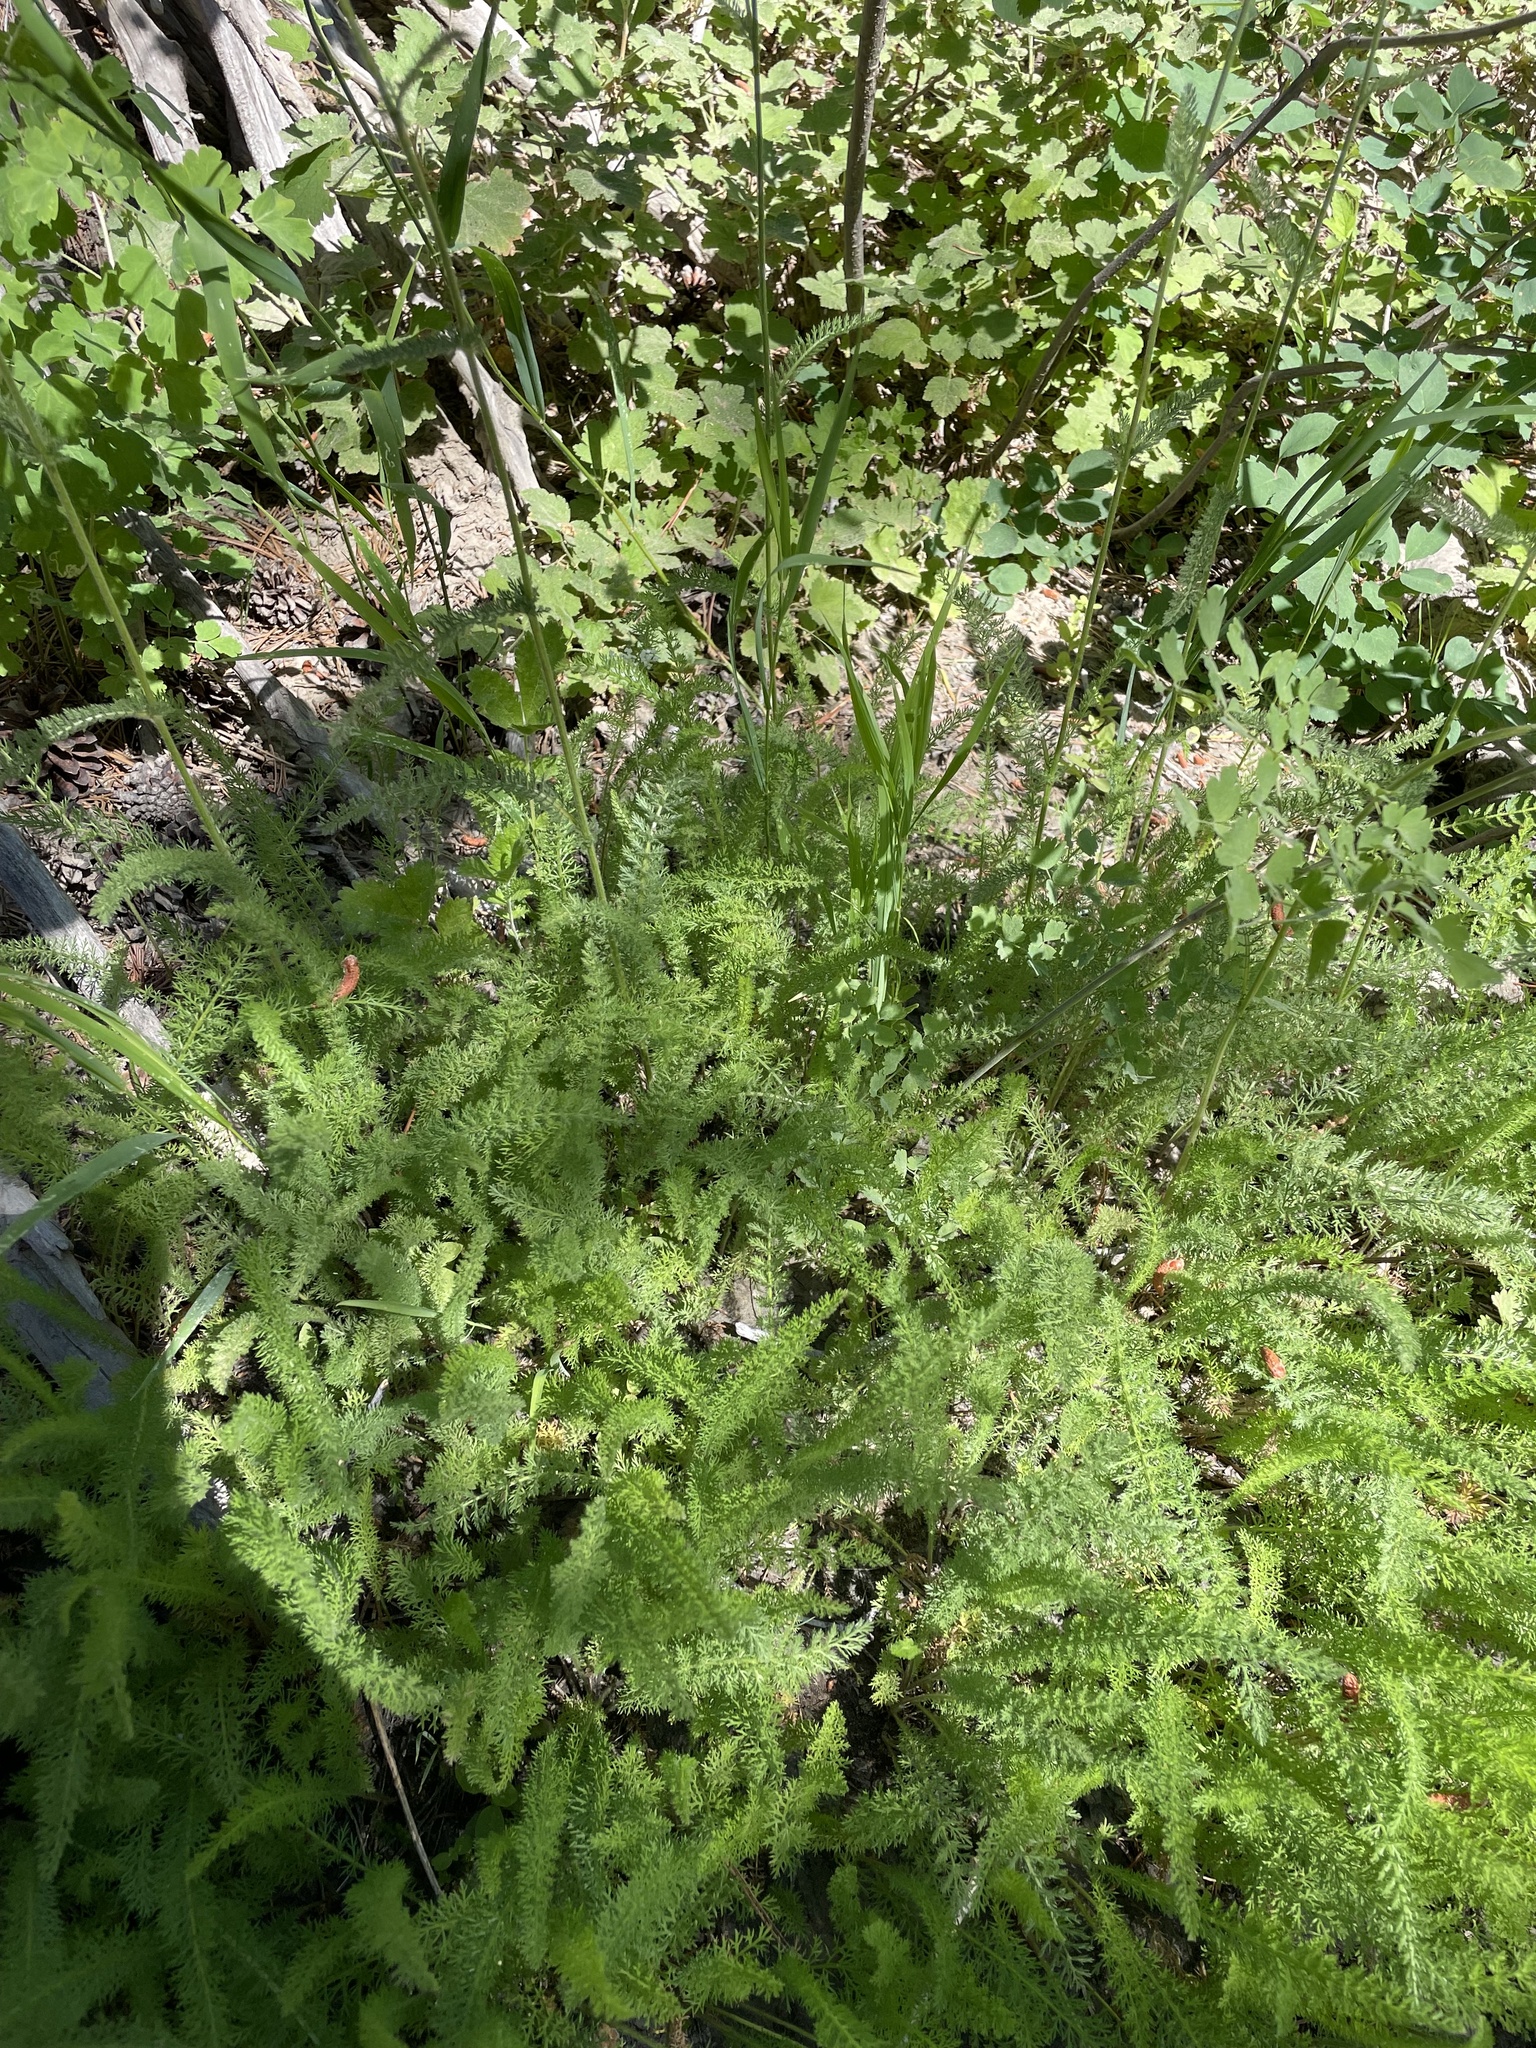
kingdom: Plantae
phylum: Tracheophyta
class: Magnoliopsida
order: Asterales
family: Asteraceae
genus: Achillea
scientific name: Achillea millefolium
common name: Yarrow
